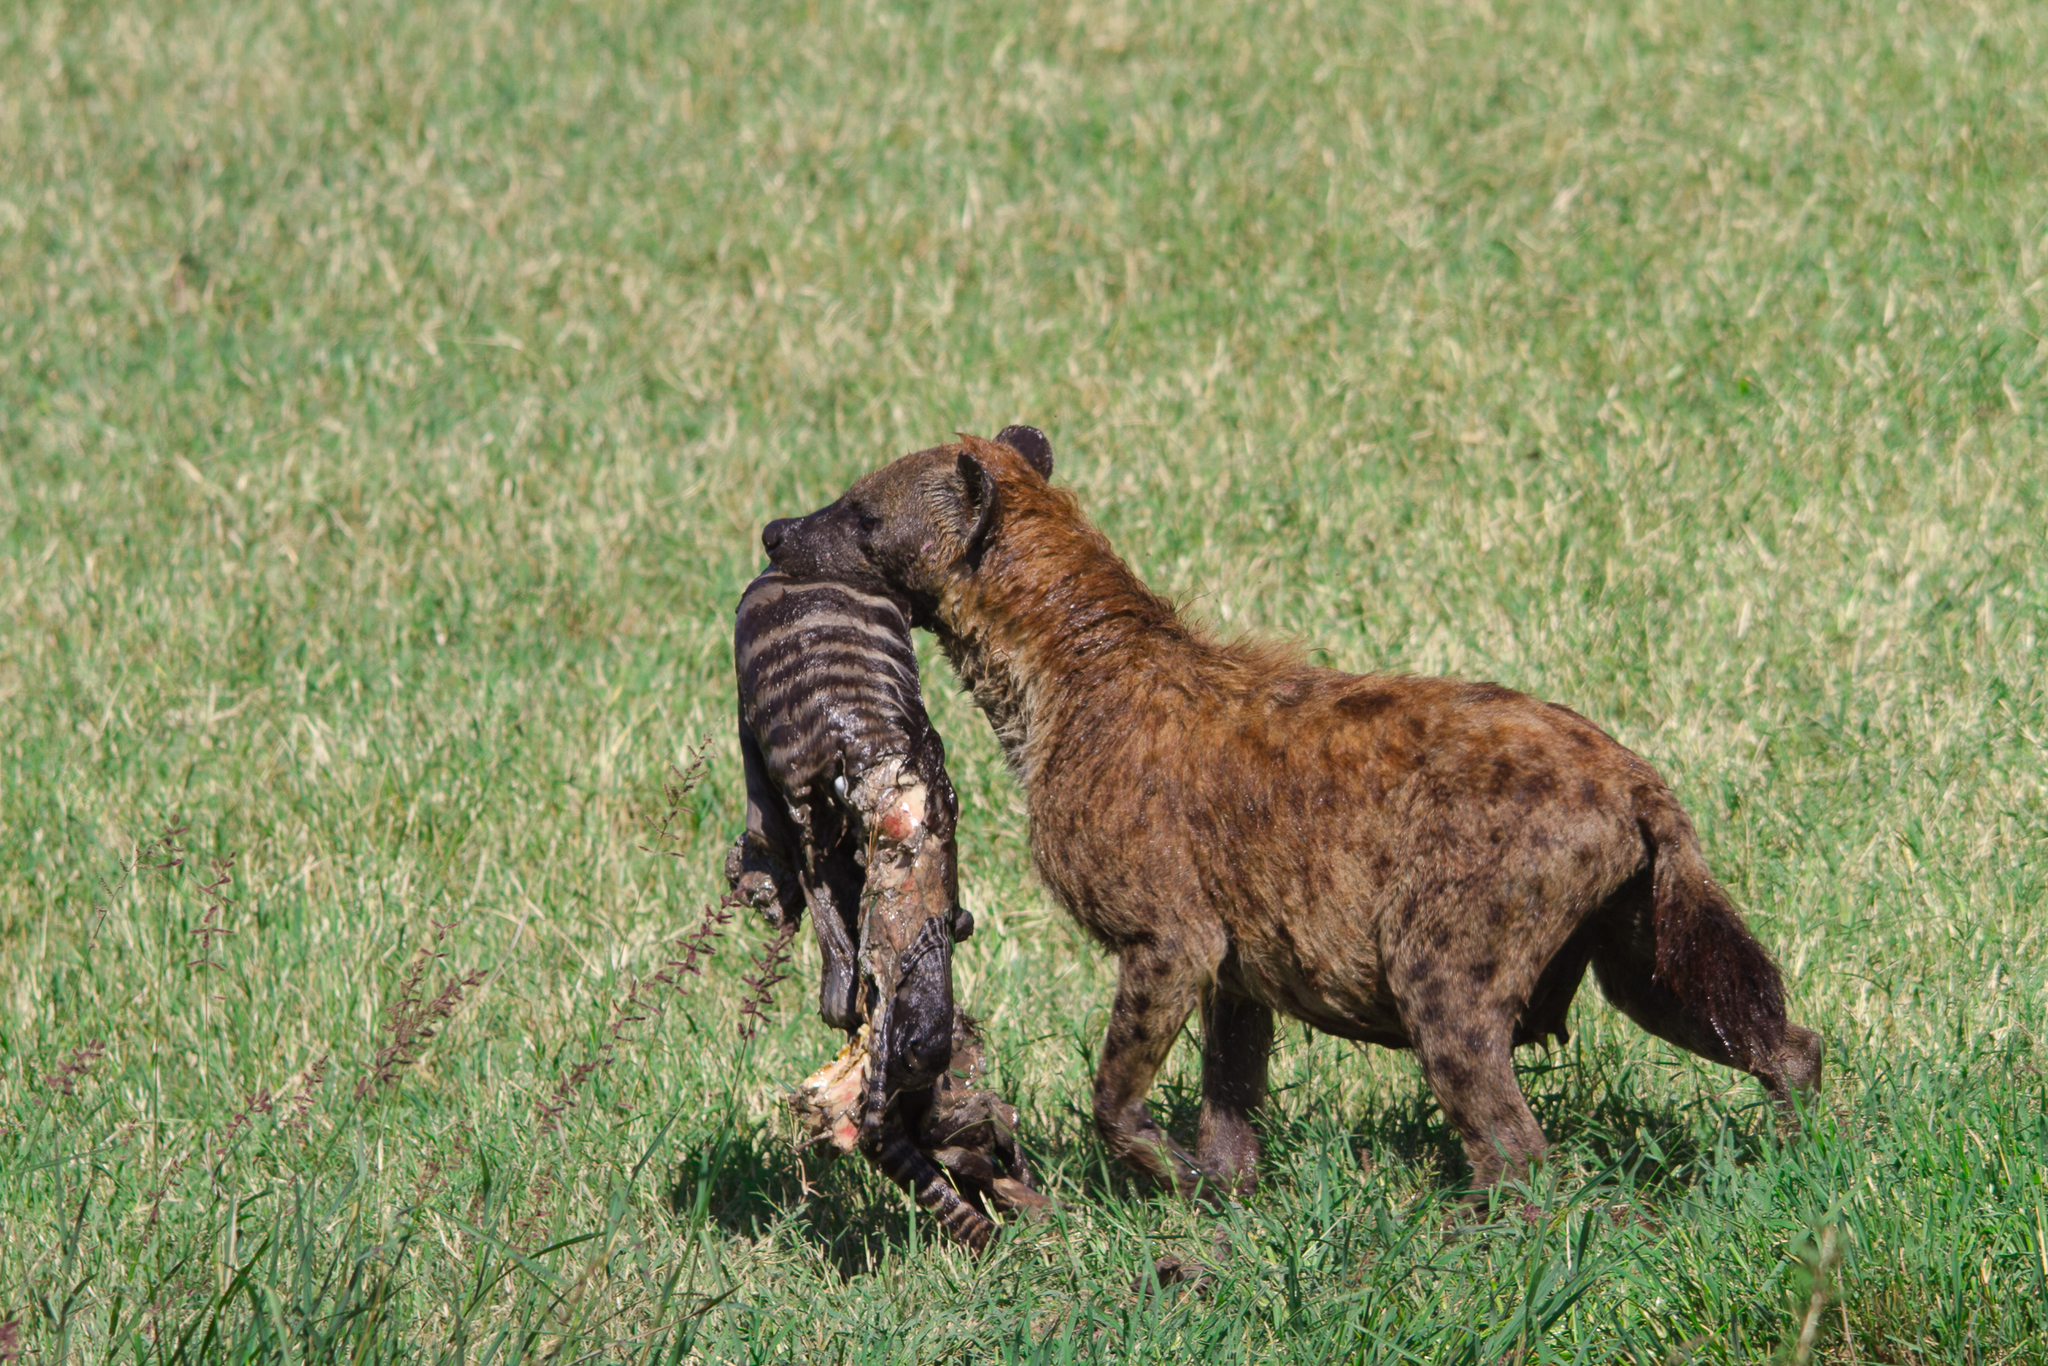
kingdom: Animalia
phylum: Chordata
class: Mammalia
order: Carnivora
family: Hyaenidae
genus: Crocuta
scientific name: Crocuta crocuta
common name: Spotted hyaena
